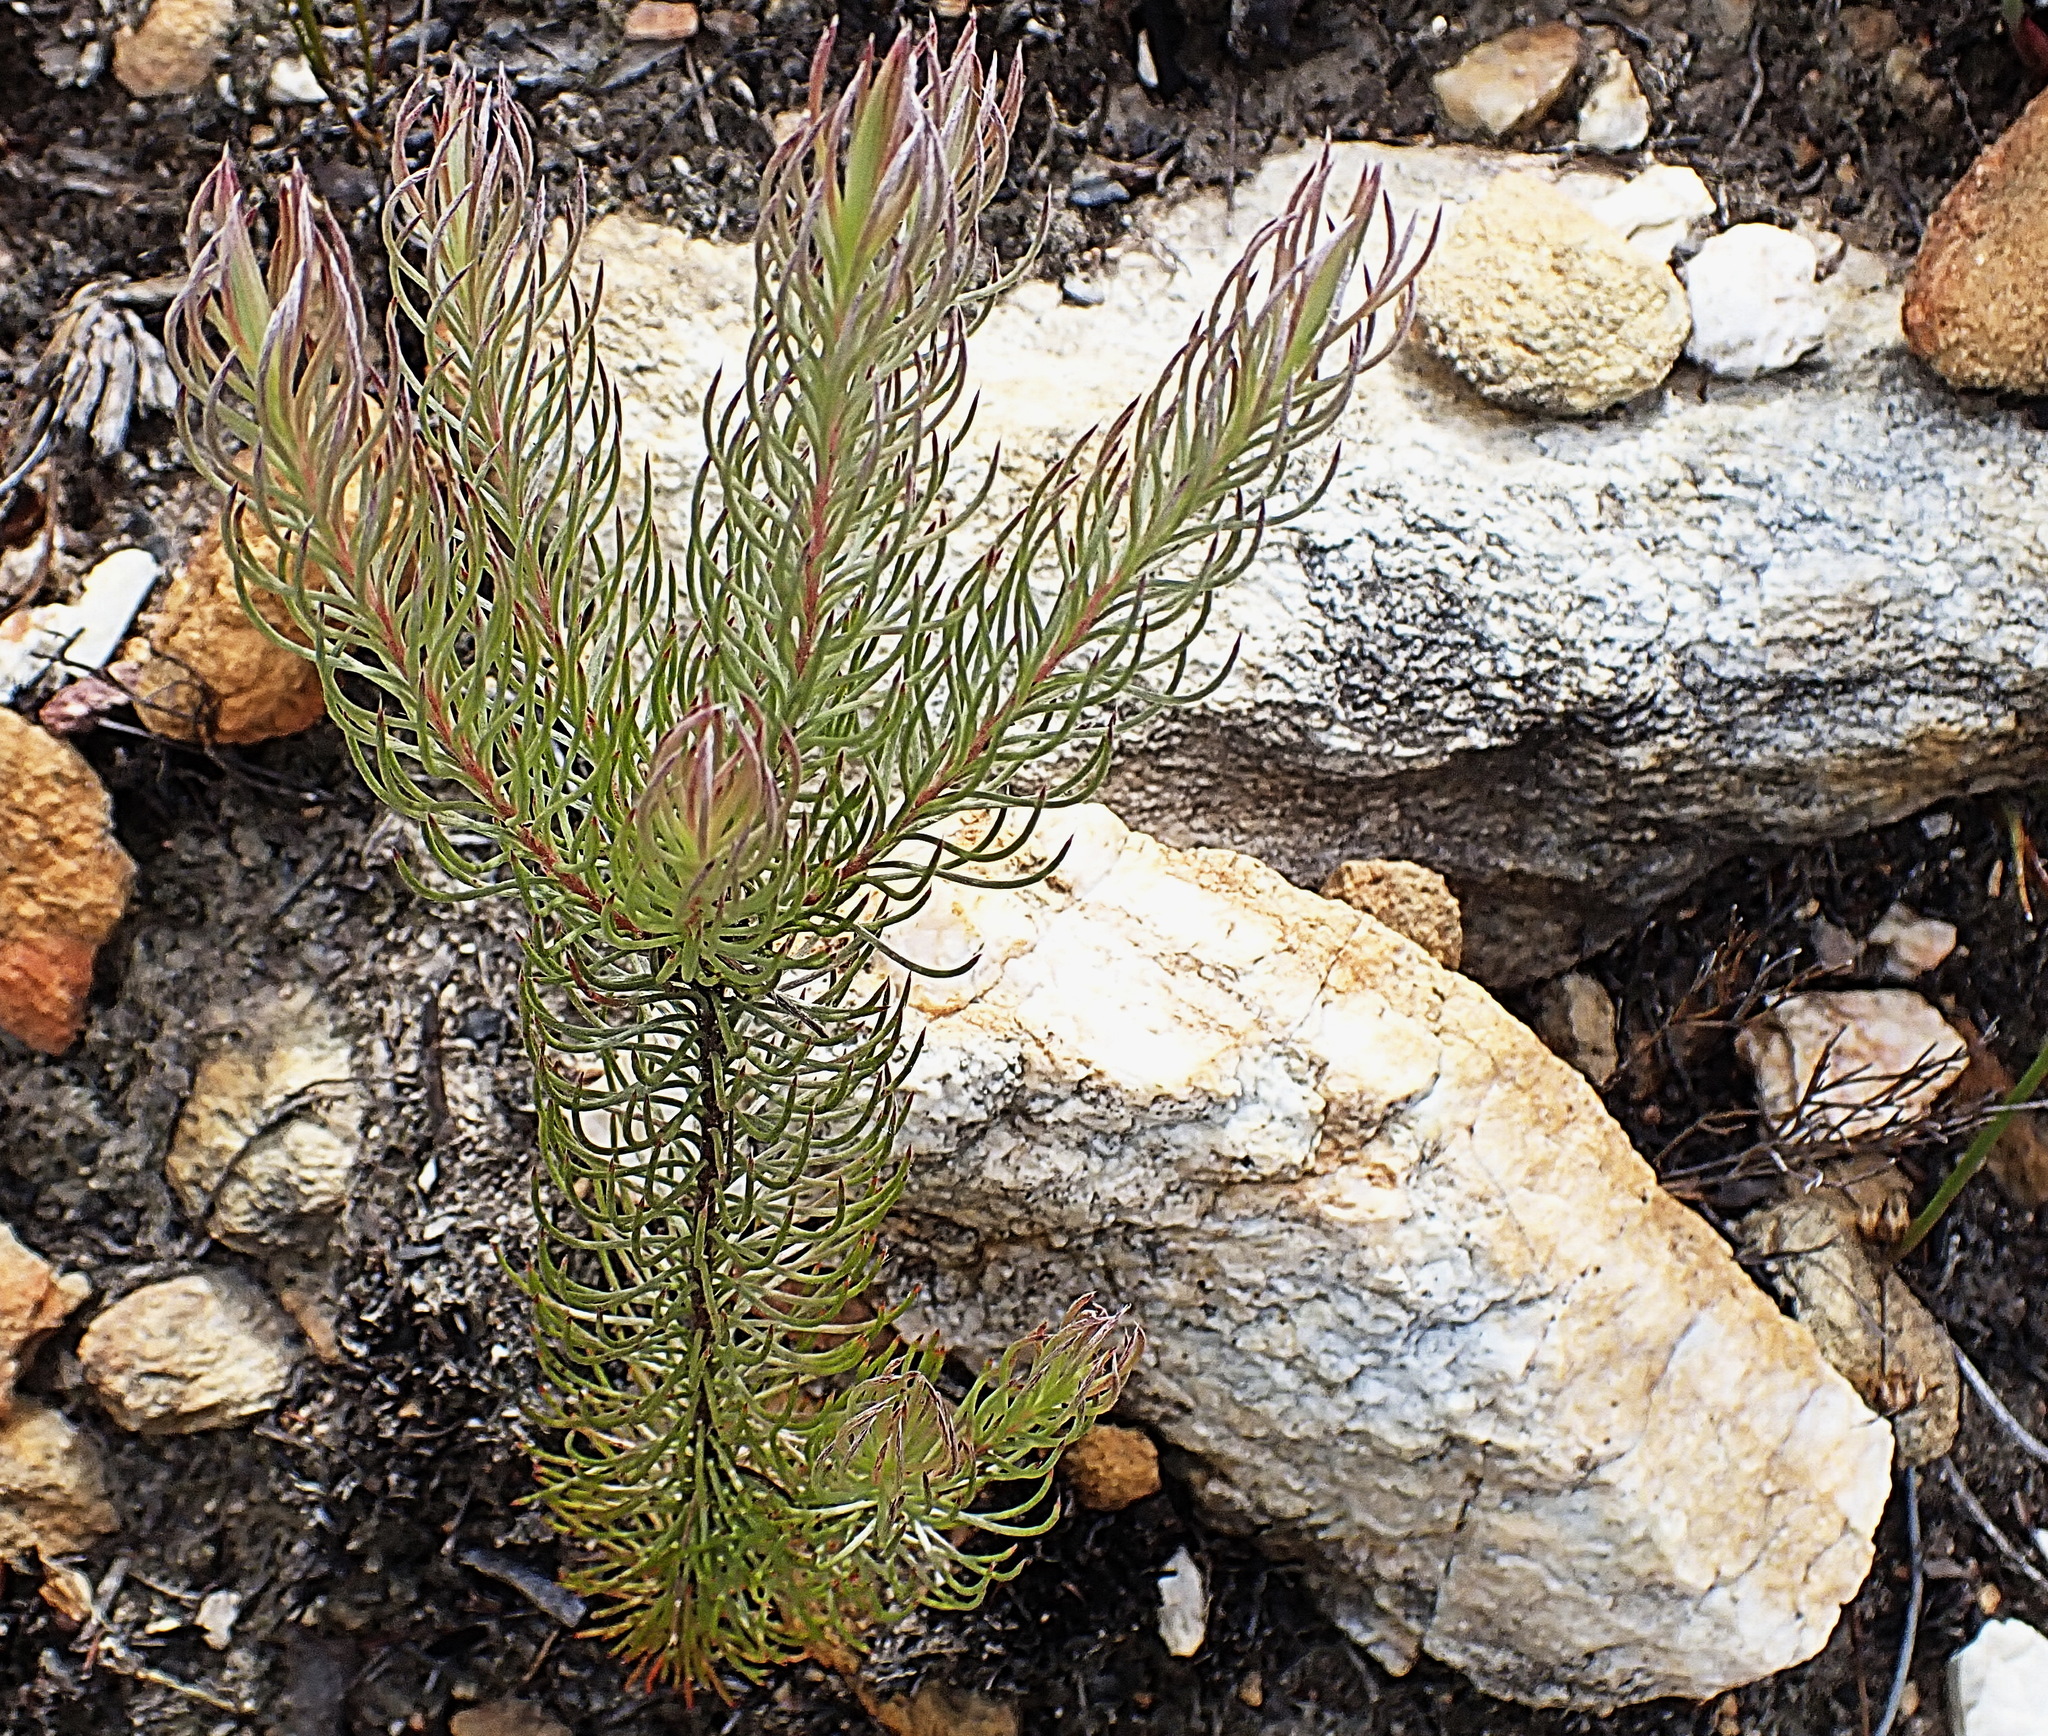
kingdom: Plantae
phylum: Tracheophyta
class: Magnoliopsida
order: Proteales
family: Proteaceae
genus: Spatalla
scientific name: Spatalla barbigera
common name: Fine-leaf spoon
